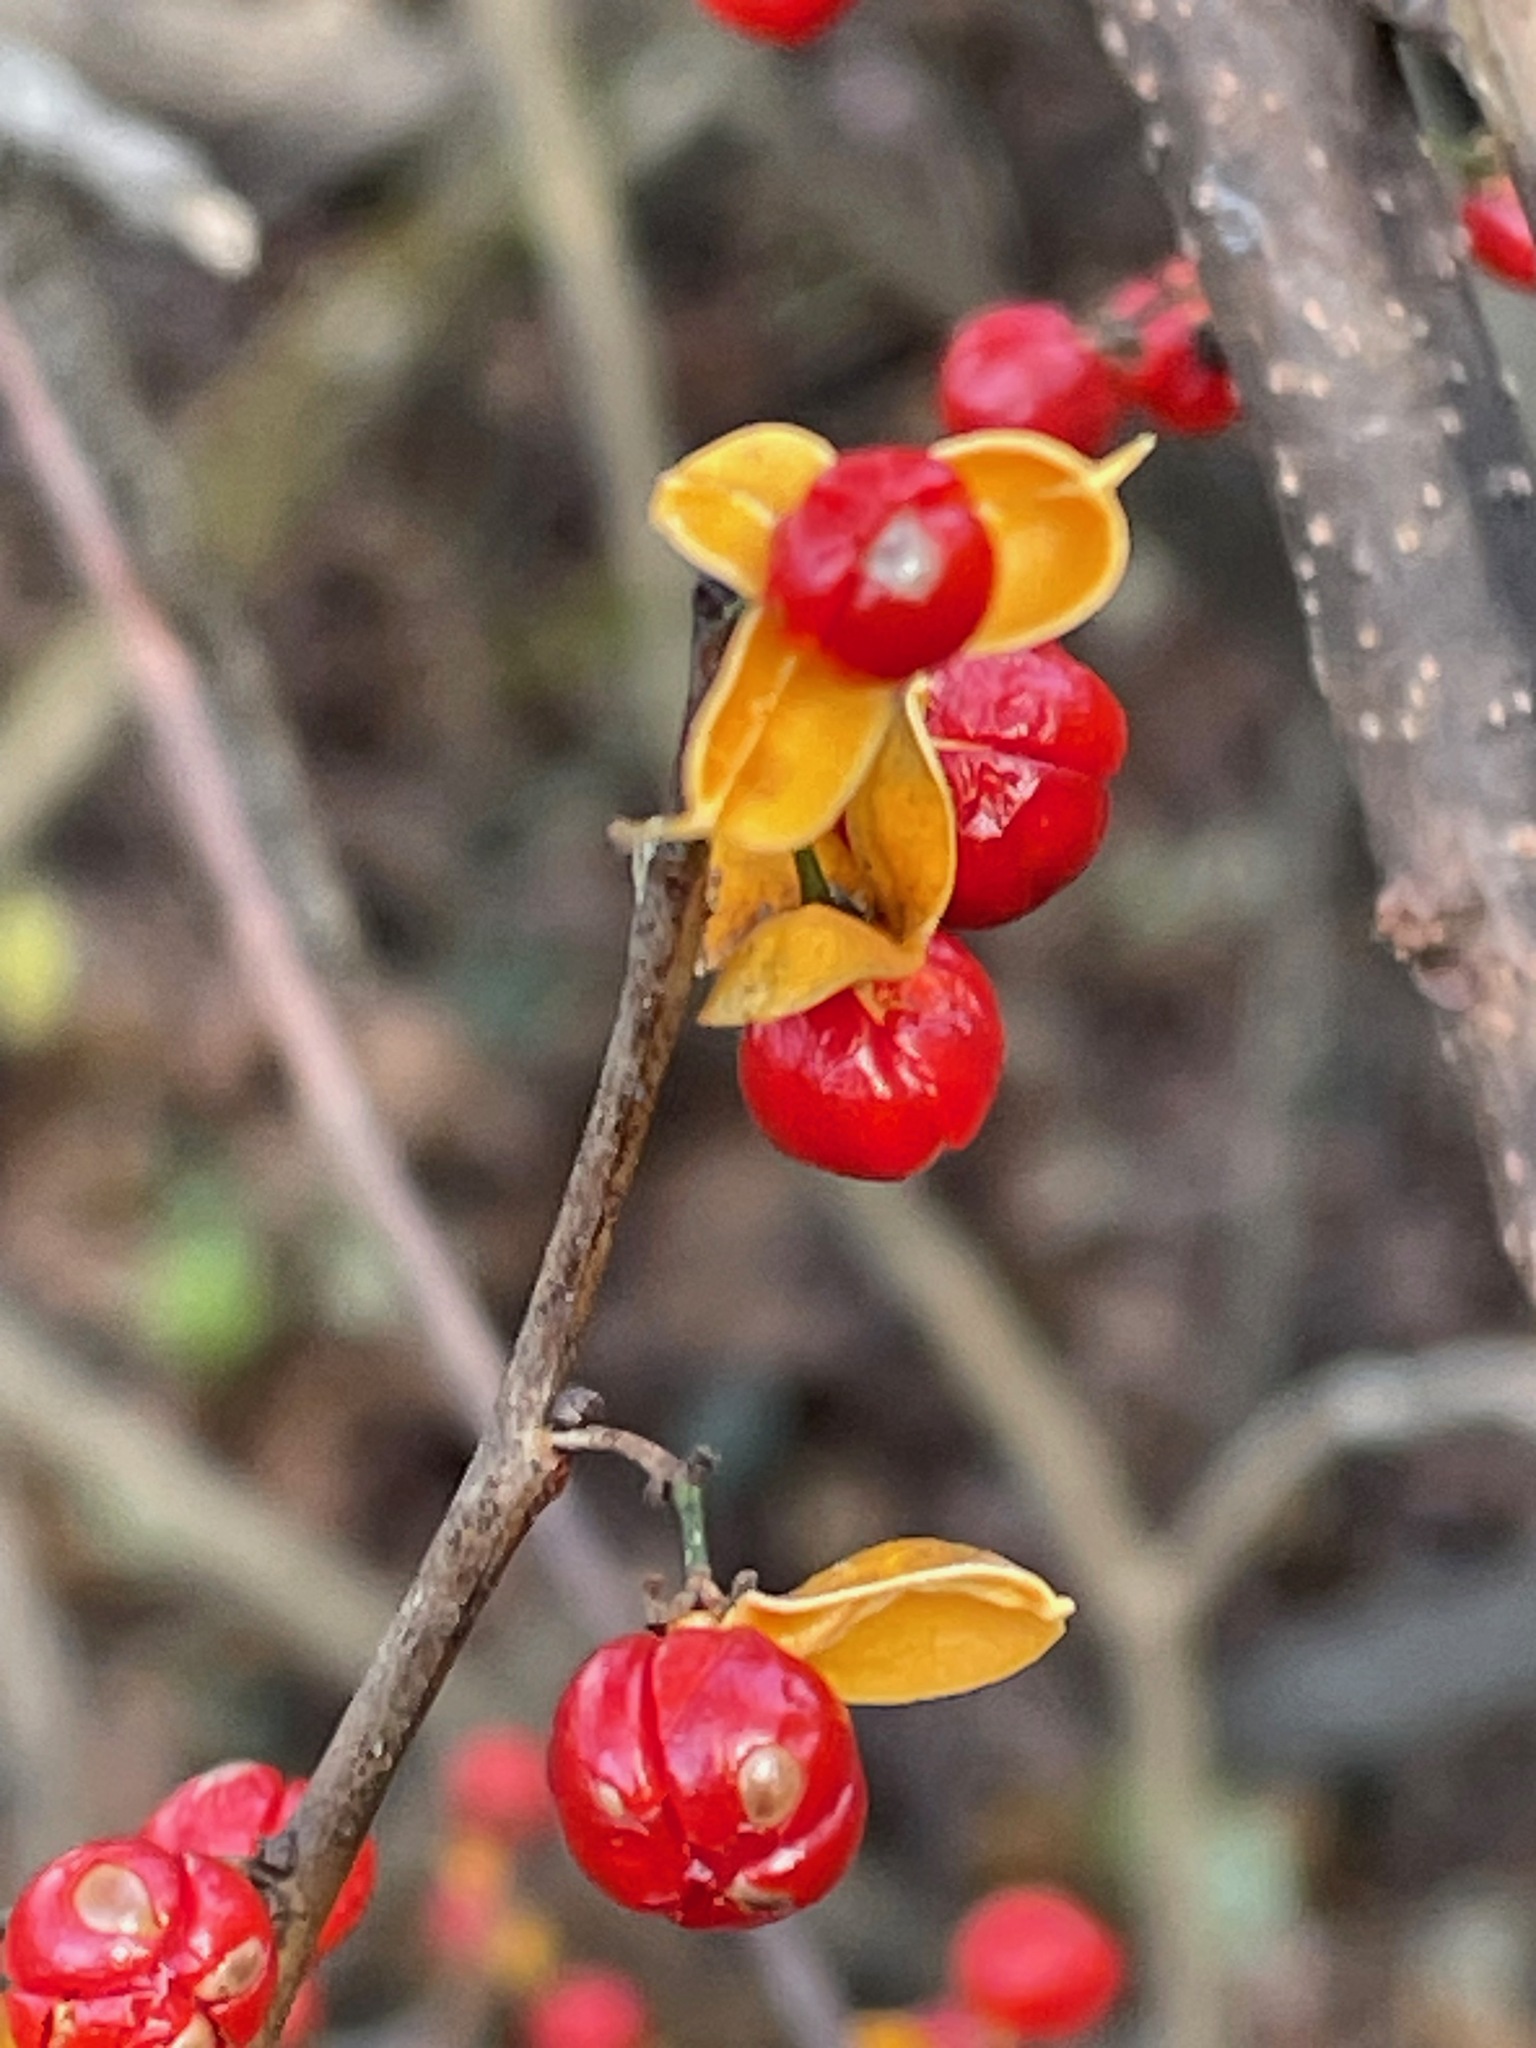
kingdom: Plantae
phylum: Tracheophyta
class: Magnoliopsida
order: Celastrales
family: Celastraceae
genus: Celastrus
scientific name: Celastrus orbiculatus
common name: Oriental bittersweet
